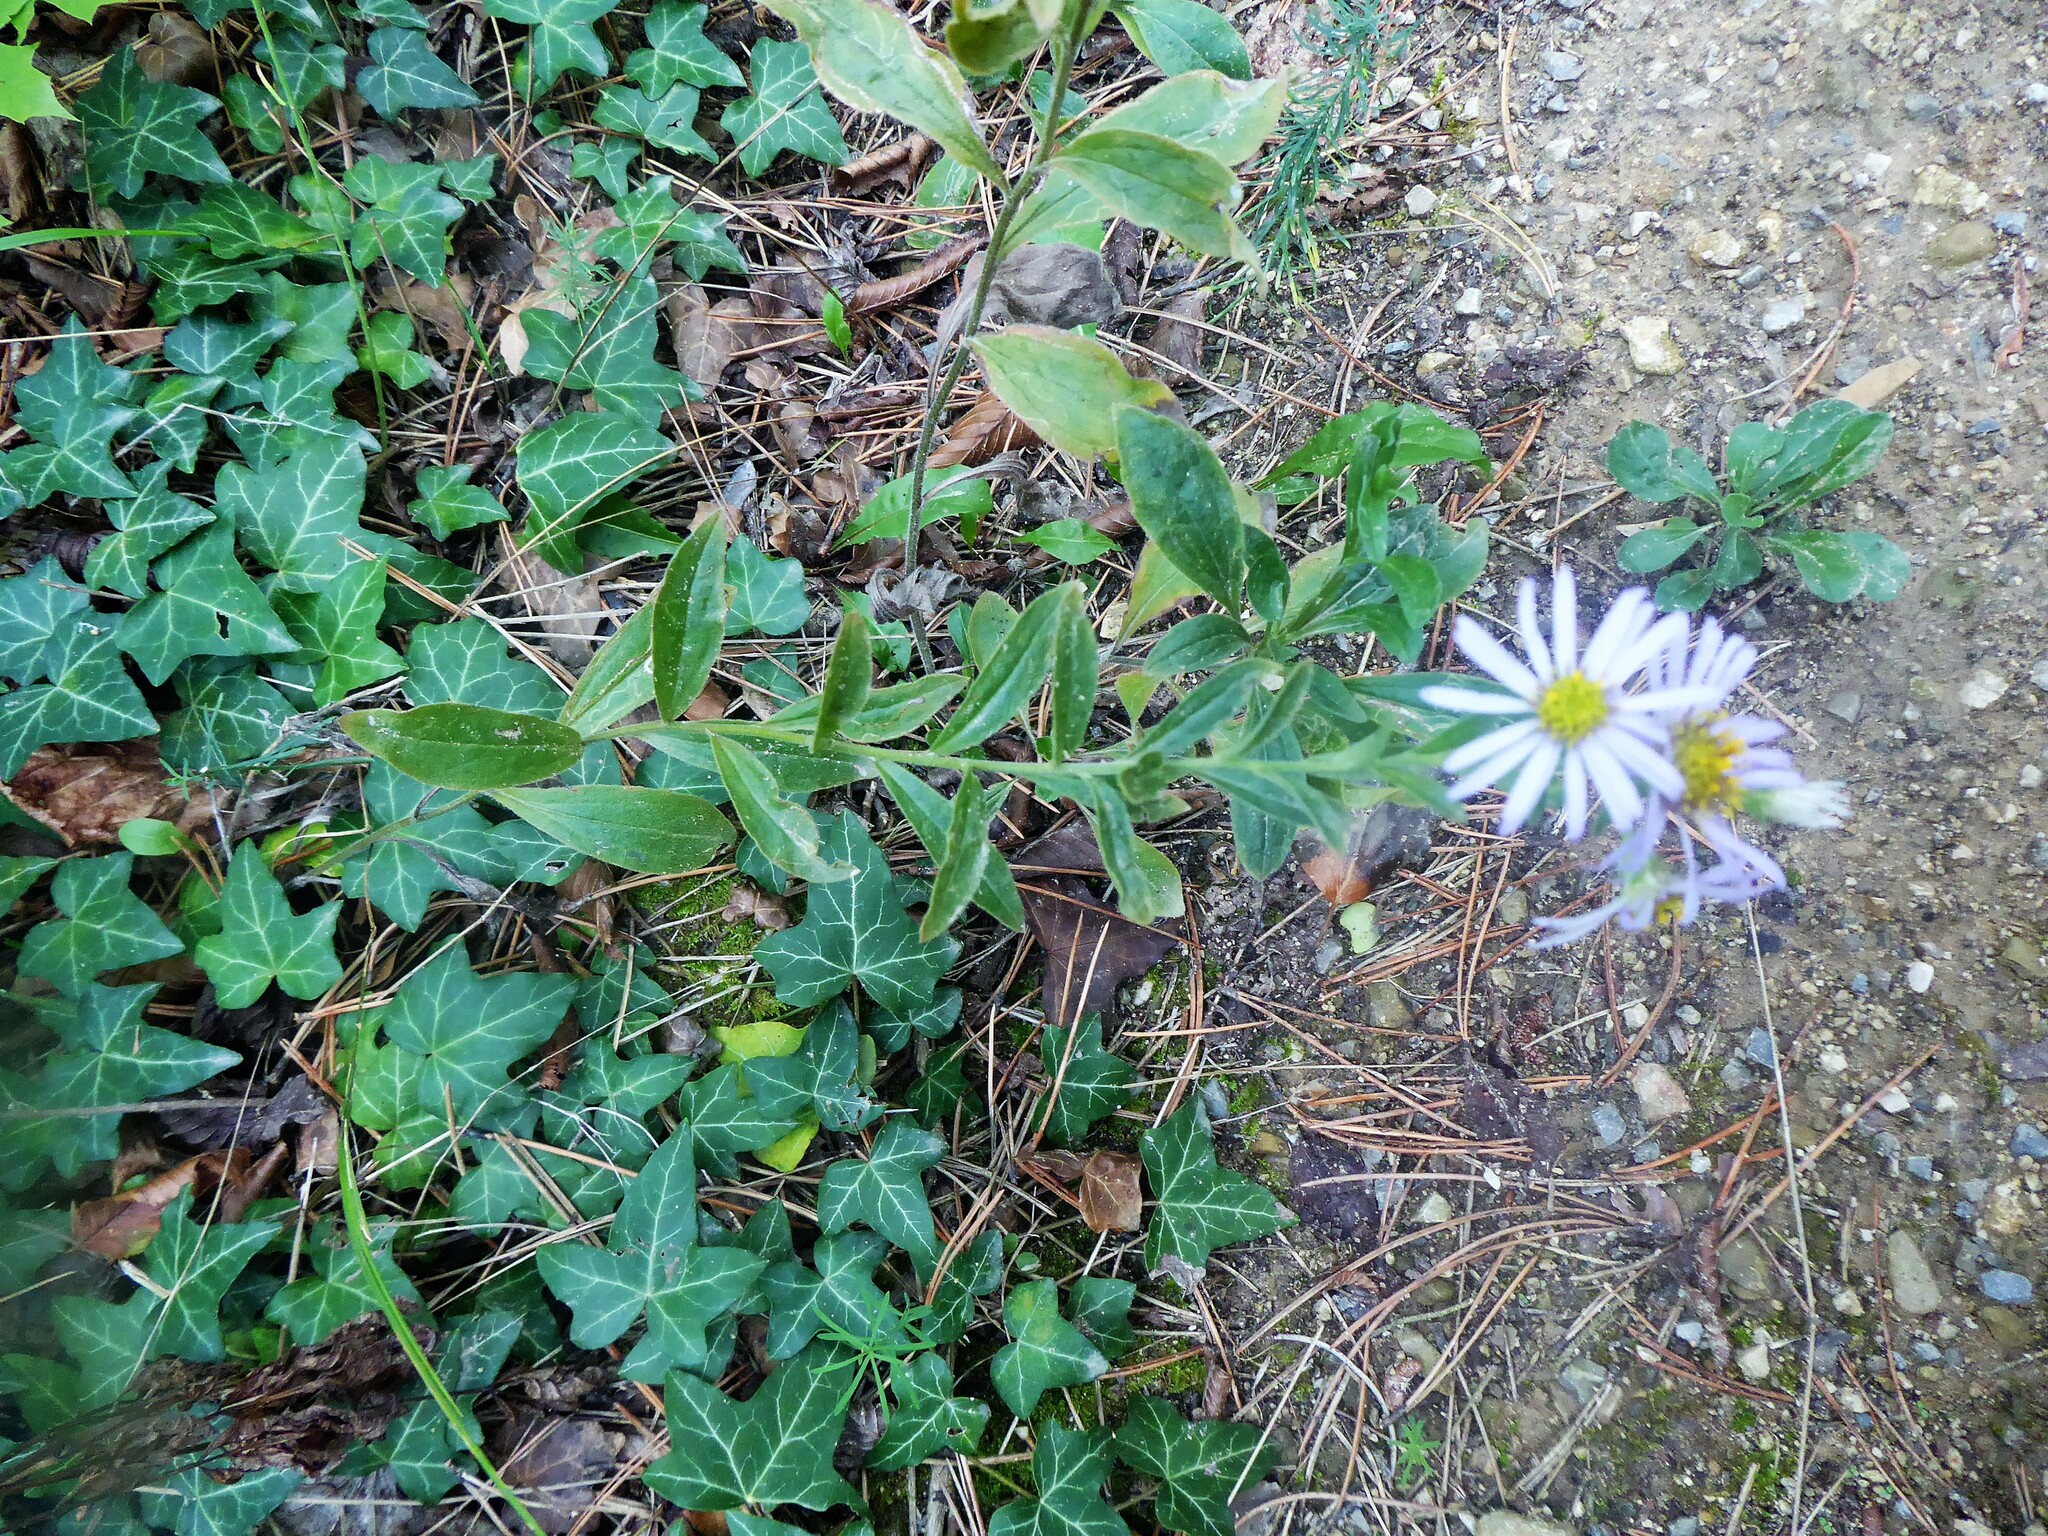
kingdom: Plantae
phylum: Tracheophyta
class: Magnoliopsida
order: Asterales
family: Asteraceae
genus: Aster
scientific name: Aster amellus
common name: European michaelmas daisy
